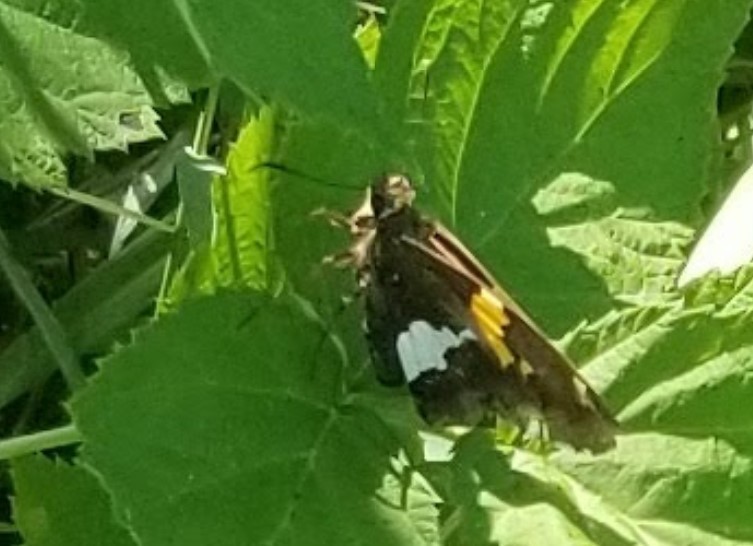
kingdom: Animalia
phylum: Arthropoda
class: Insecta
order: Lepidoptera
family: Hesperiidae
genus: Epargyreus
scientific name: Epargyreus clarus
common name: Silver-spotted skipper
